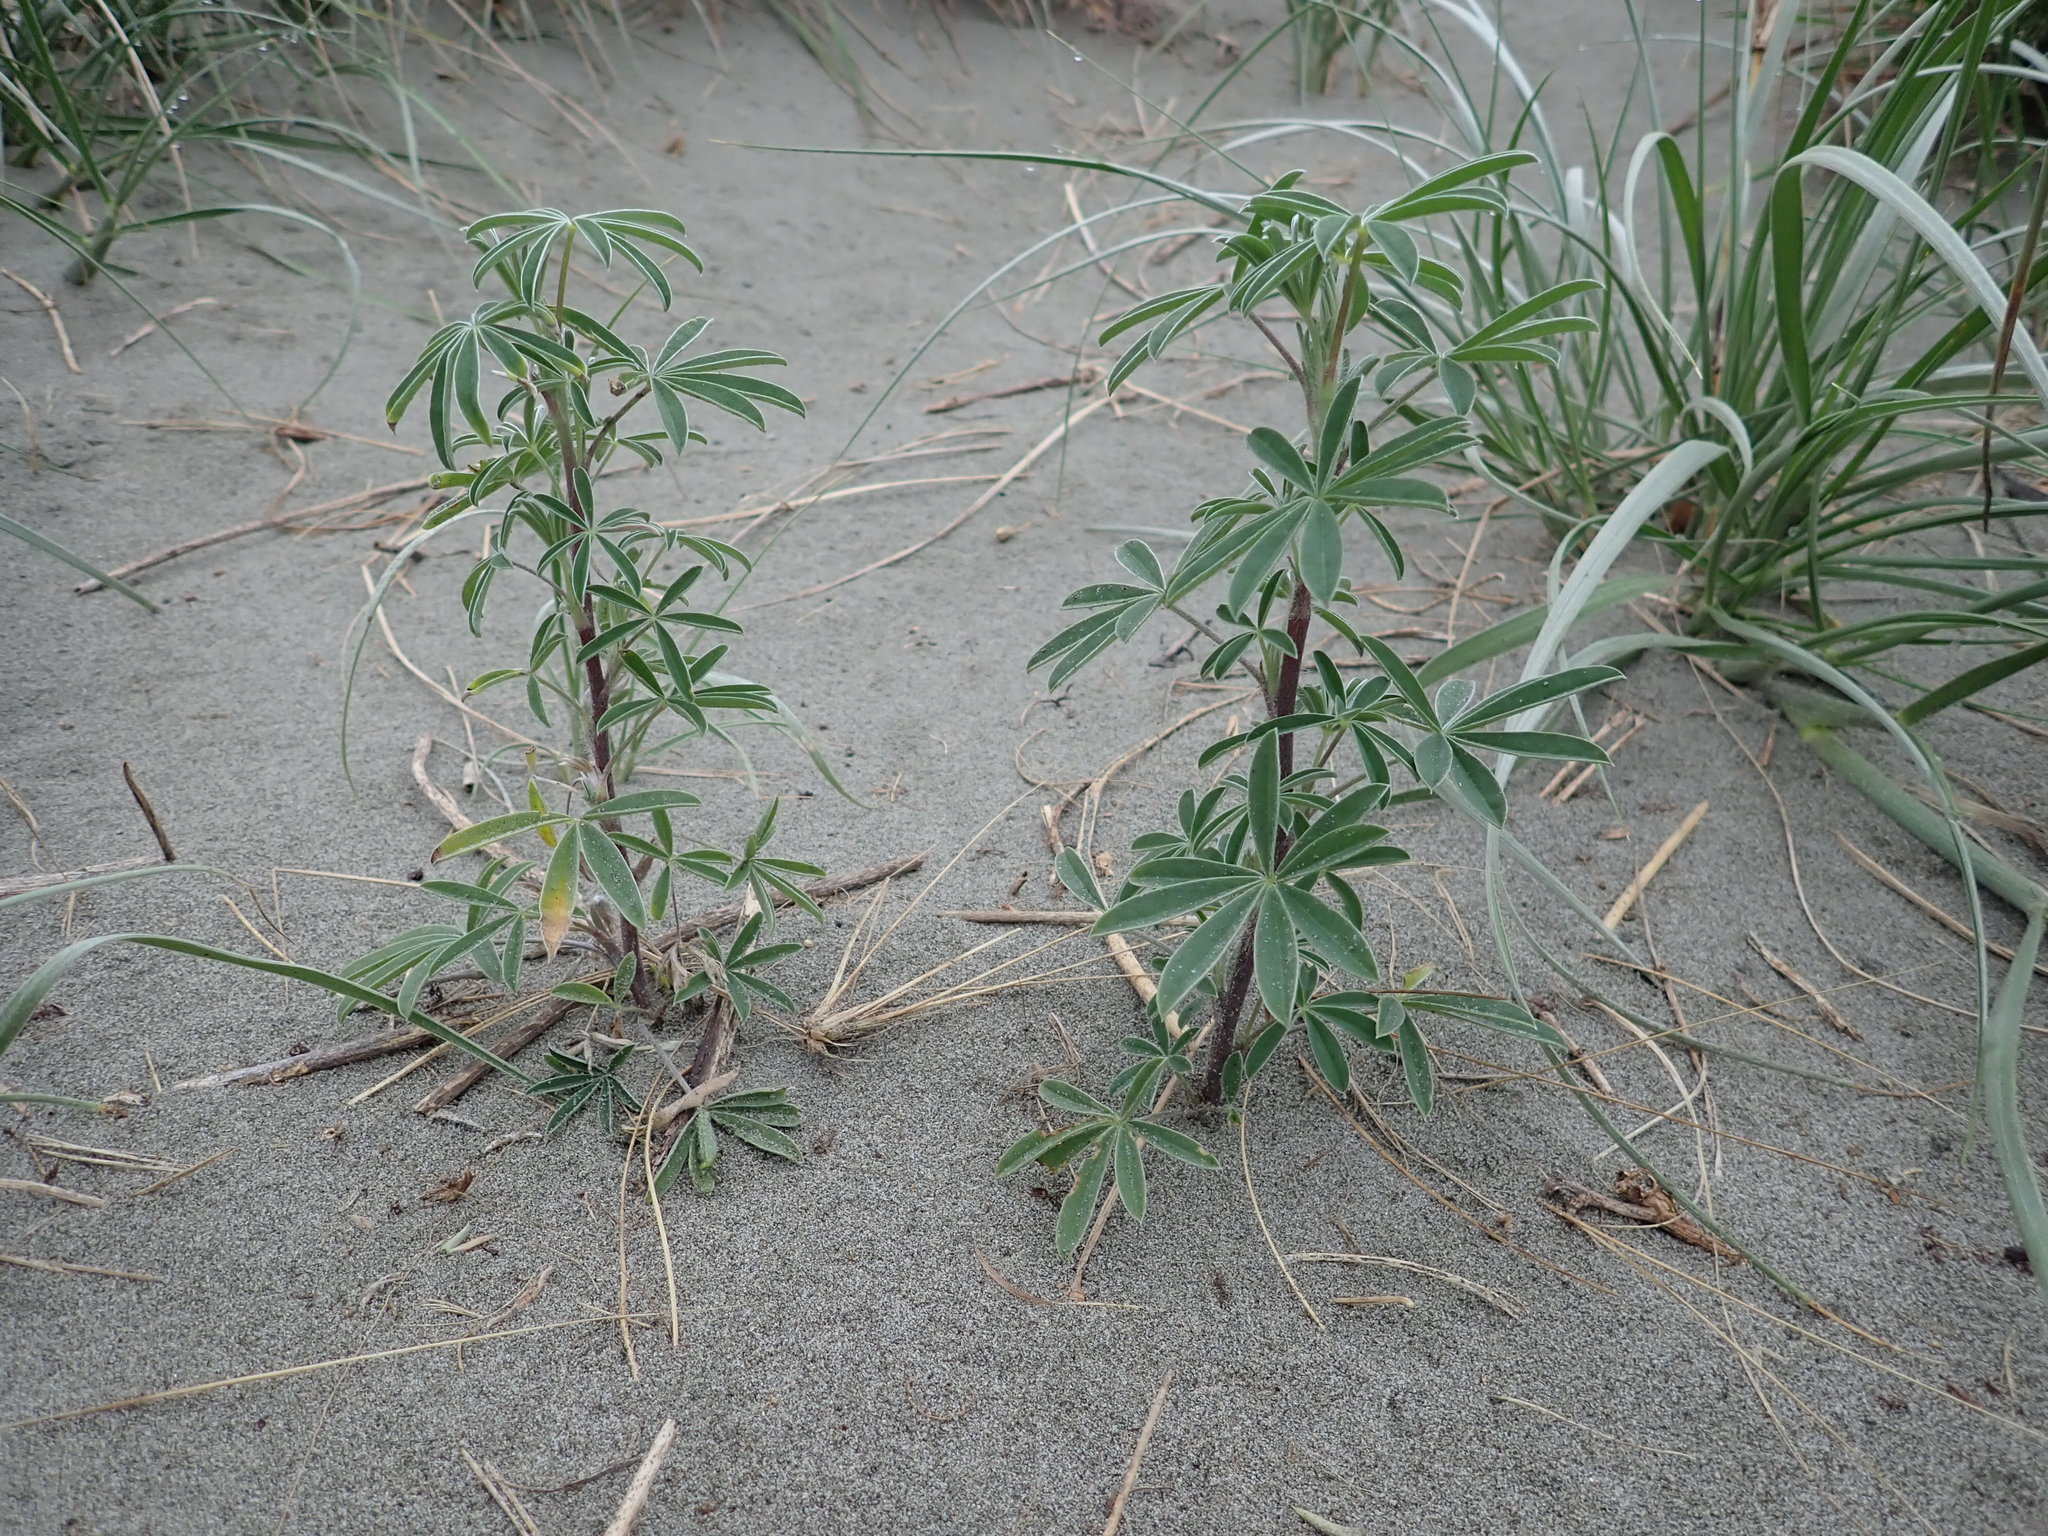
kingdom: Plantae
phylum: Tracheophyta
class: Magnoliopsida
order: Fabales
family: Fabaceae
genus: Lupinus
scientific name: Lupinus arboreus
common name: Yellow bush lupine
